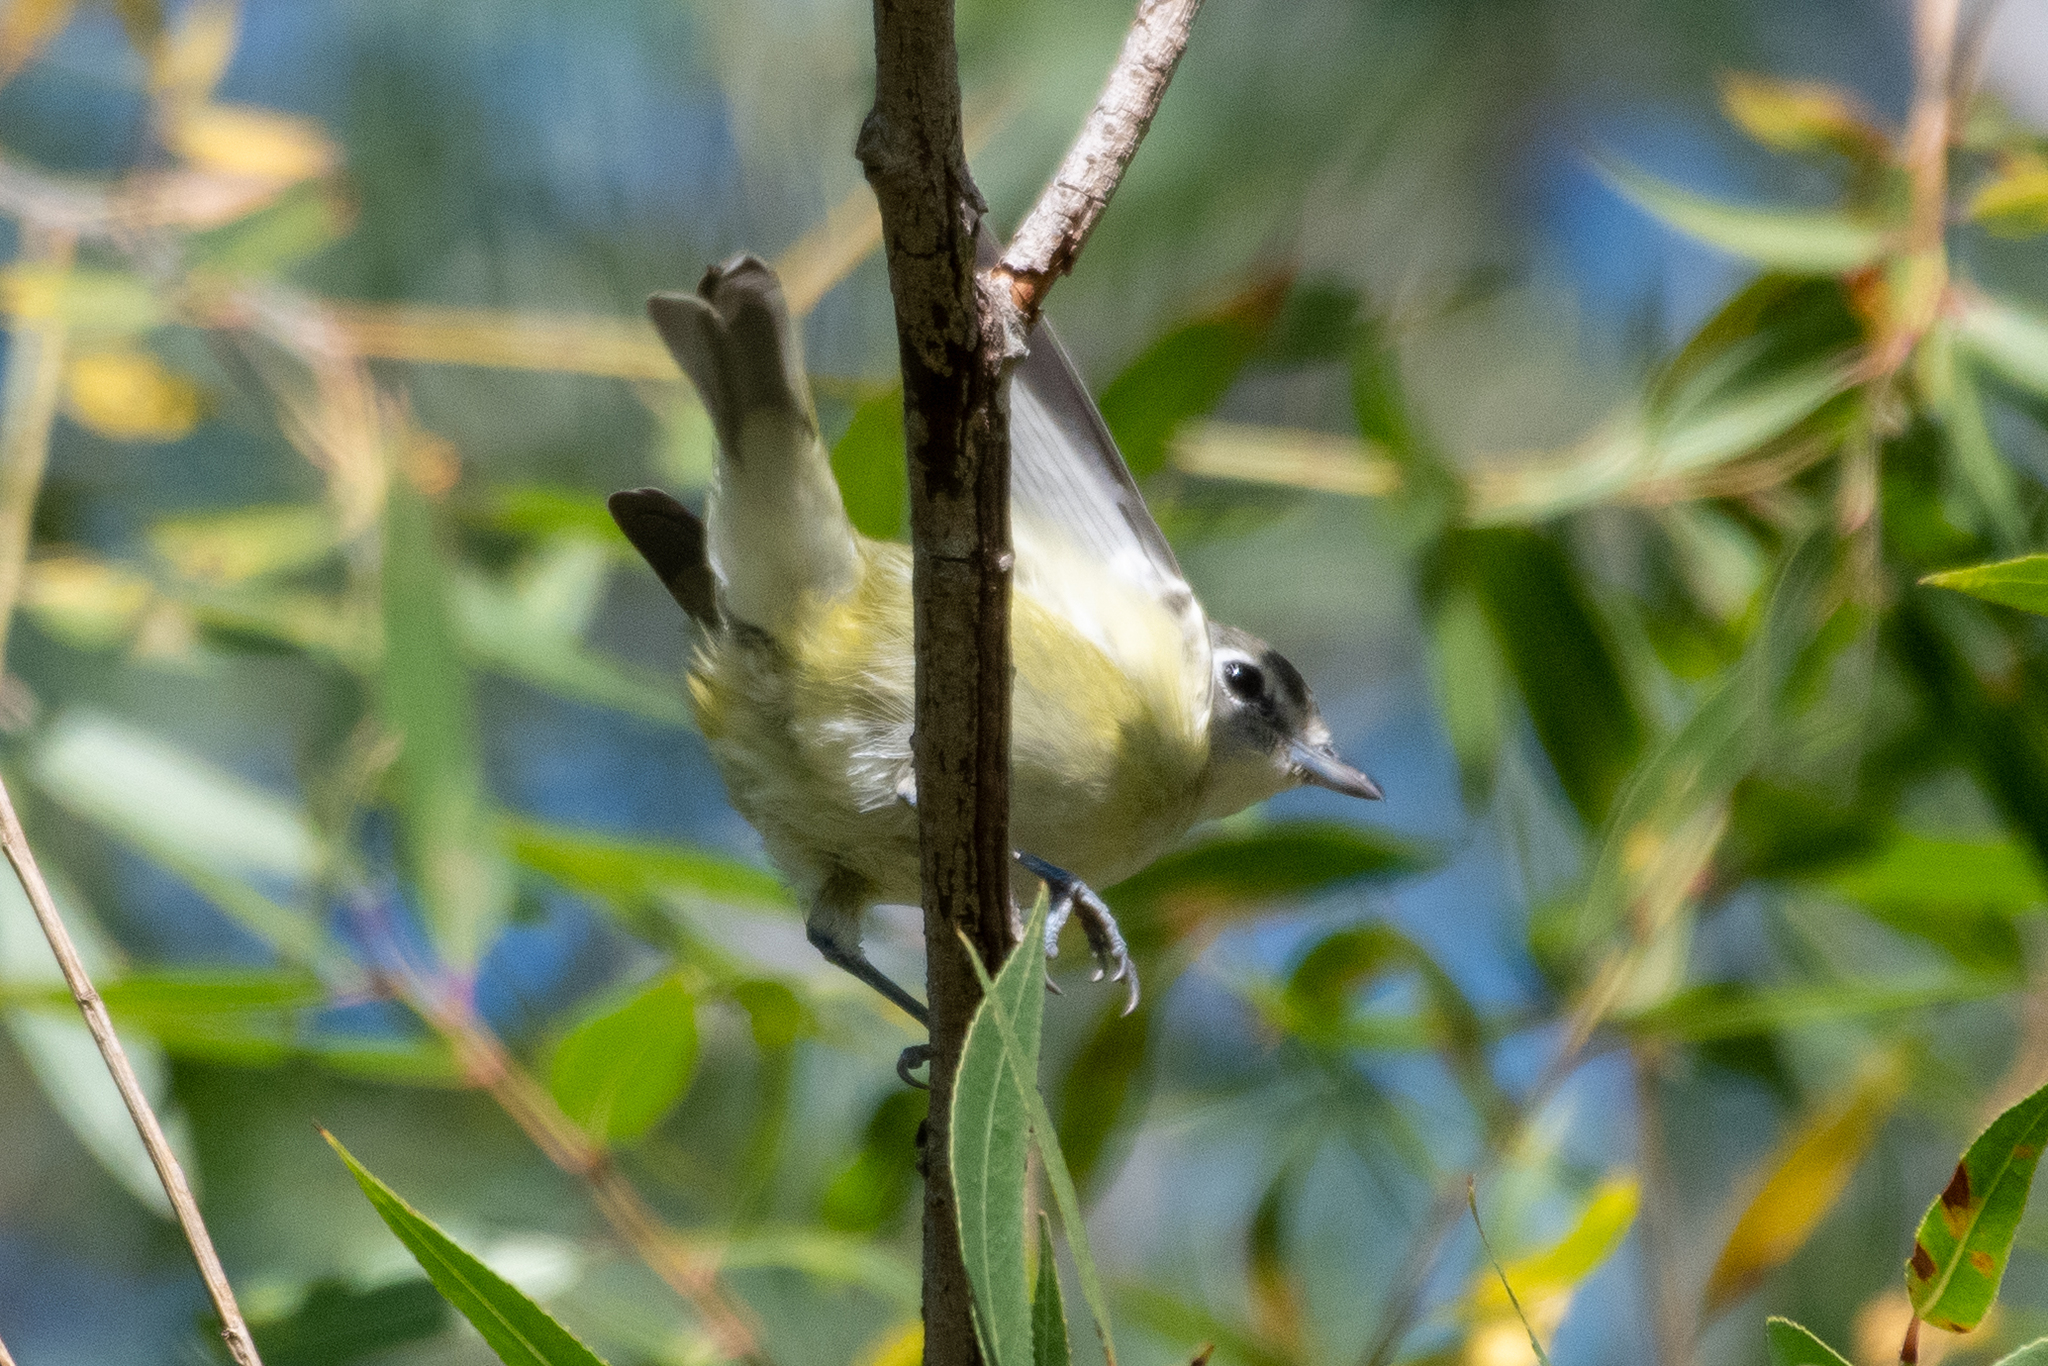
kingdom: Animalia
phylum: Chordata
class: Aves
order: Passeriformes
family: Vireonidae
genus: Vireo
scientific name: Vireo cassinii
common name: Cassin's vireo
